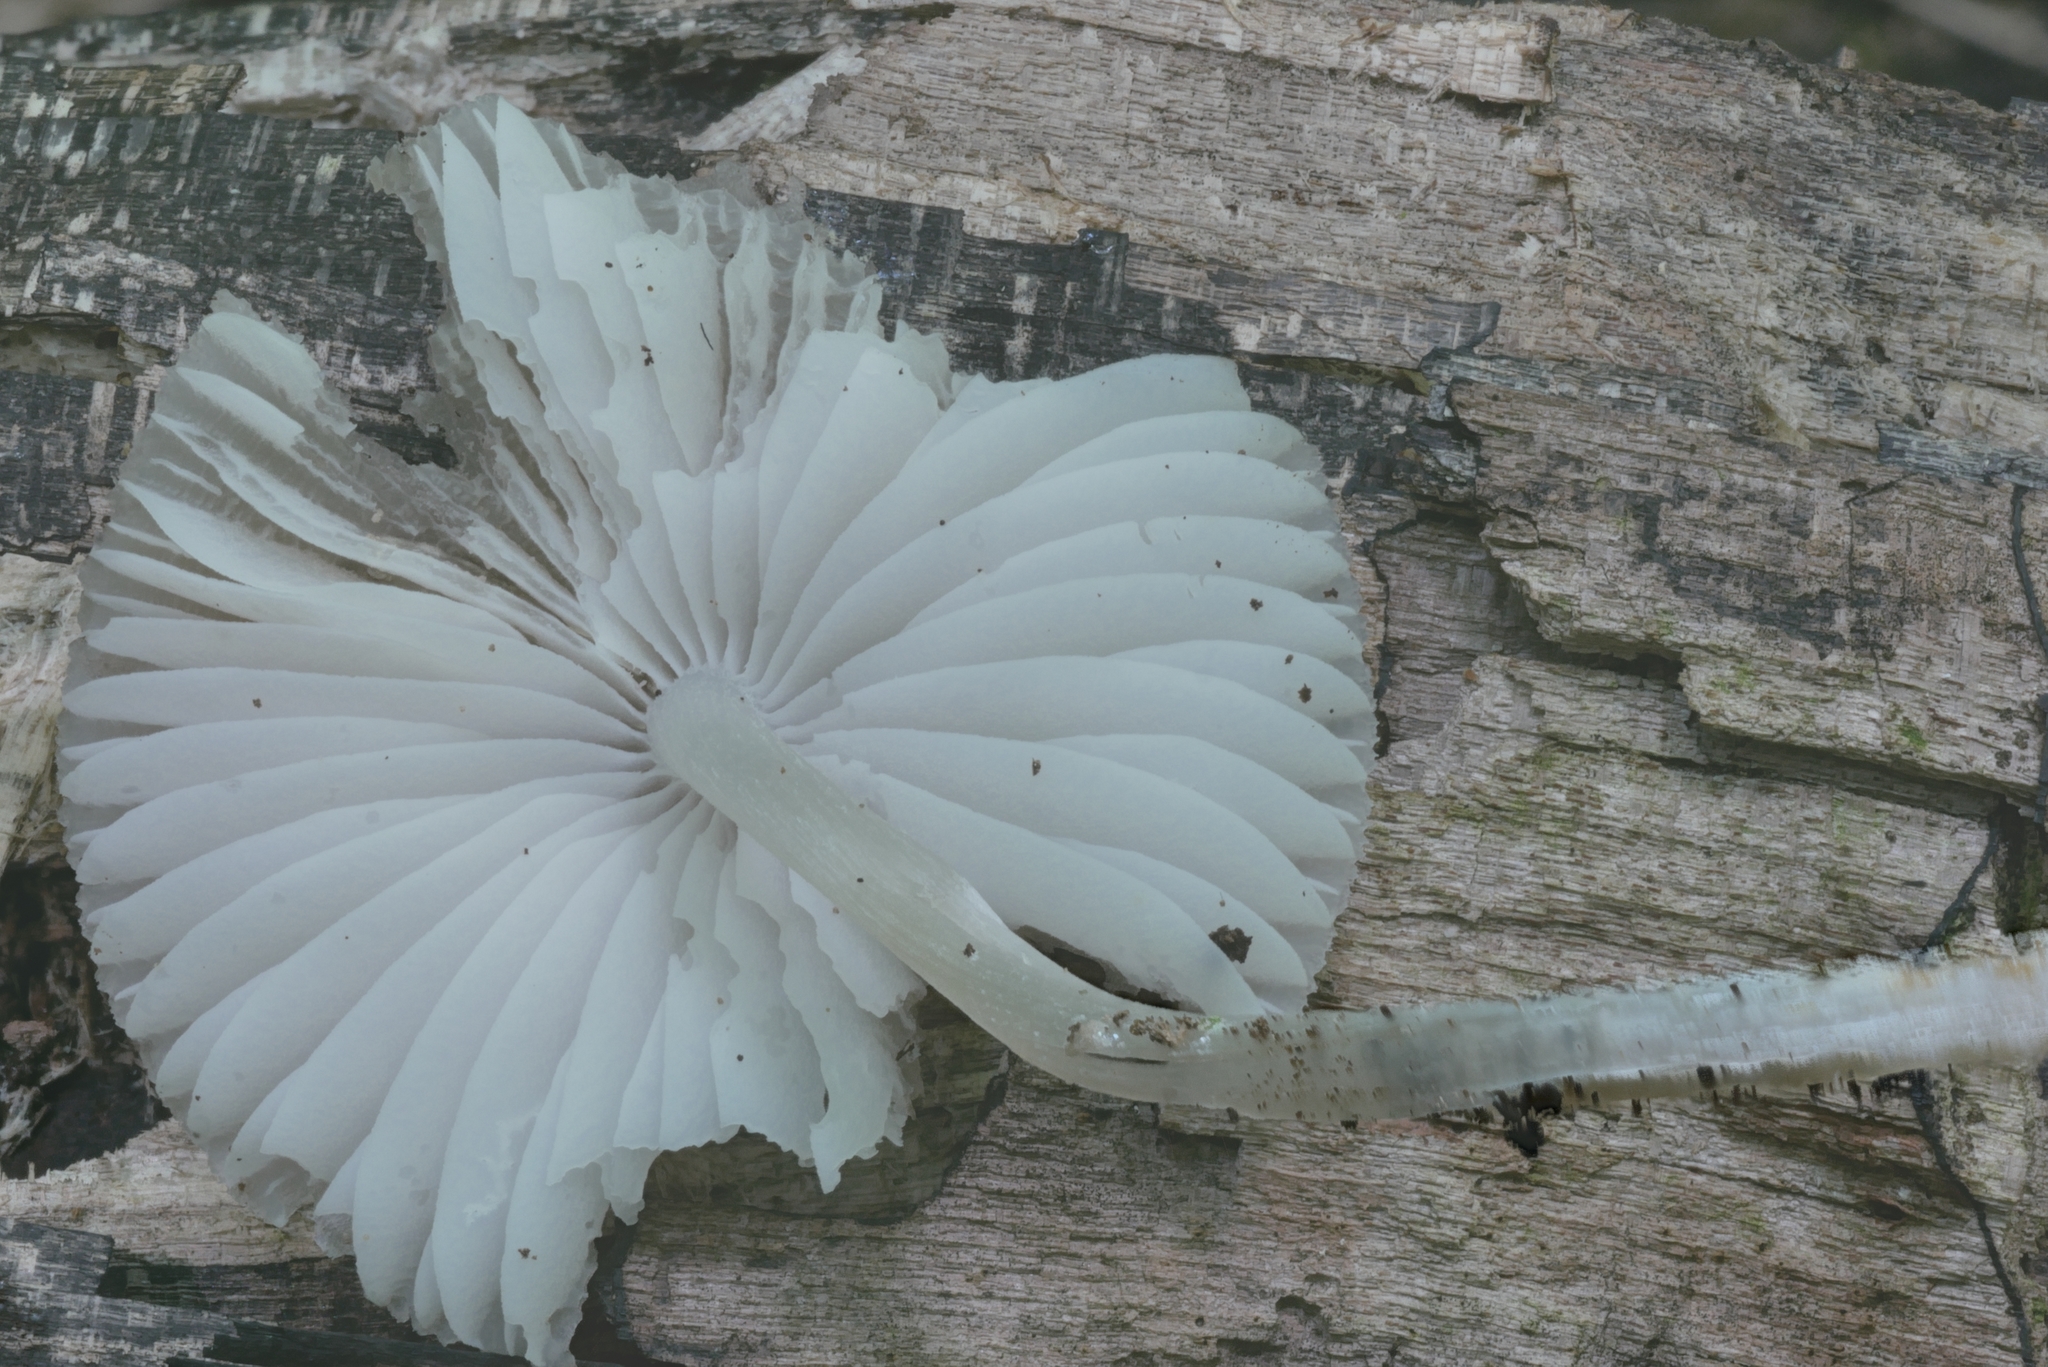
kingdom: Fungi
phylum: Basidiomycota
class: Agaricomycetes
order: Agaricales
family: Mycenaceae
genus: Mycena
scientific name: Mycena niveipes
